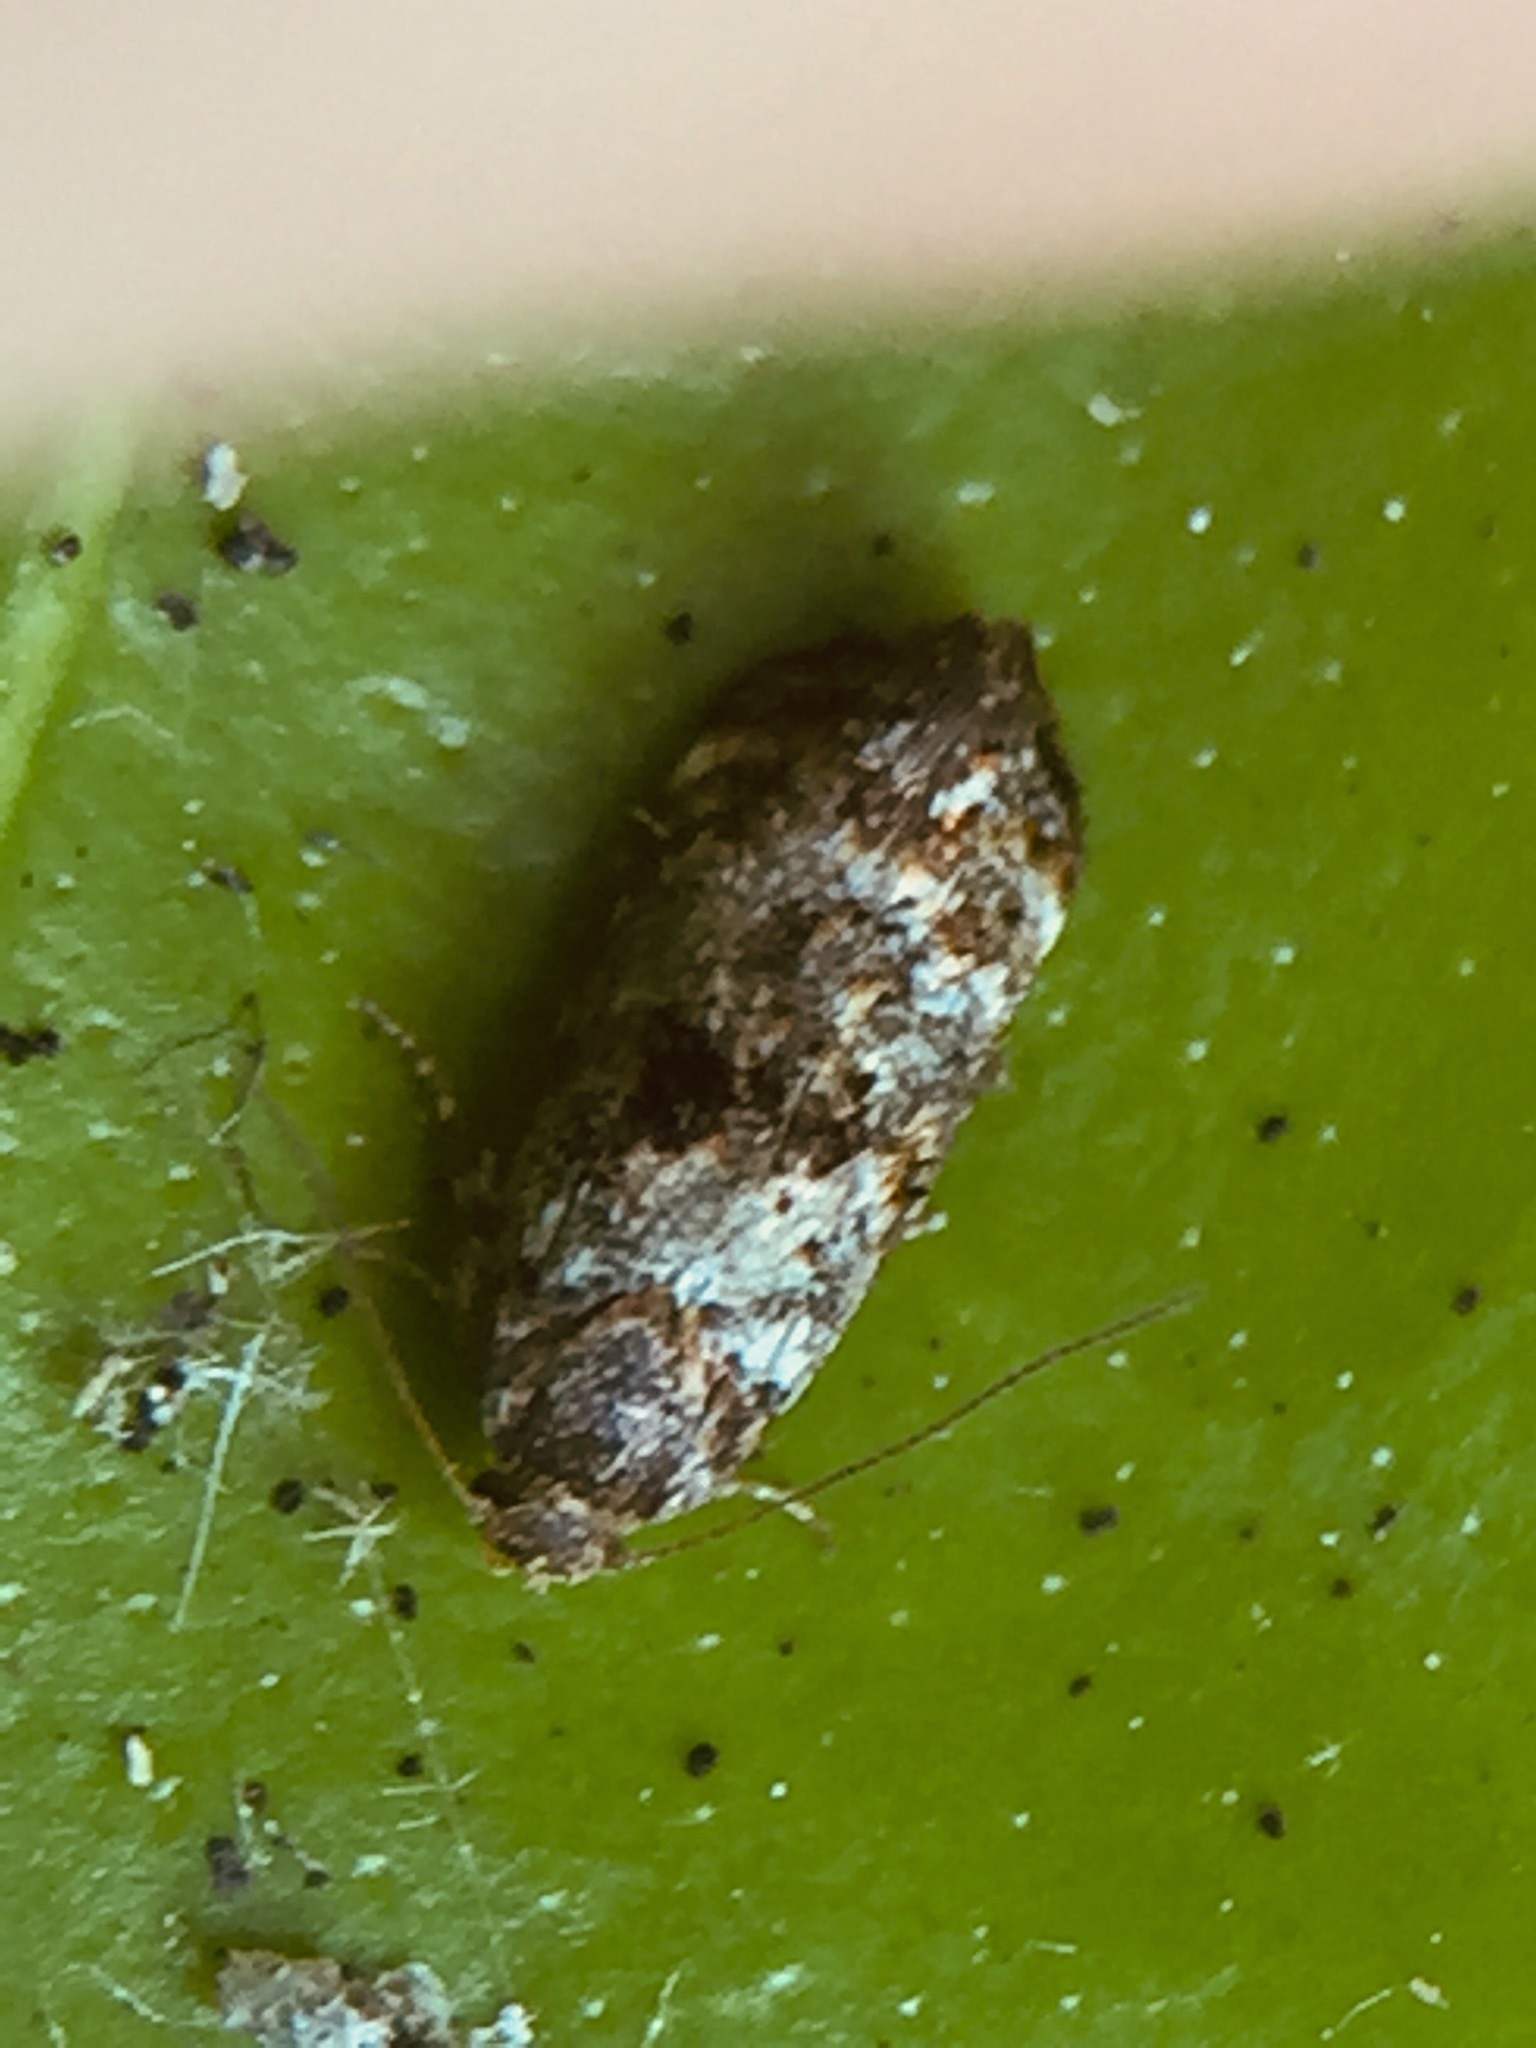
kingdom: Animalia
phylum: Arthropoda
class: Insecta
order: Lepidoptera
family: Oecophoridae
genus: Corocosma
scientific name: Corocosma memorabilis
